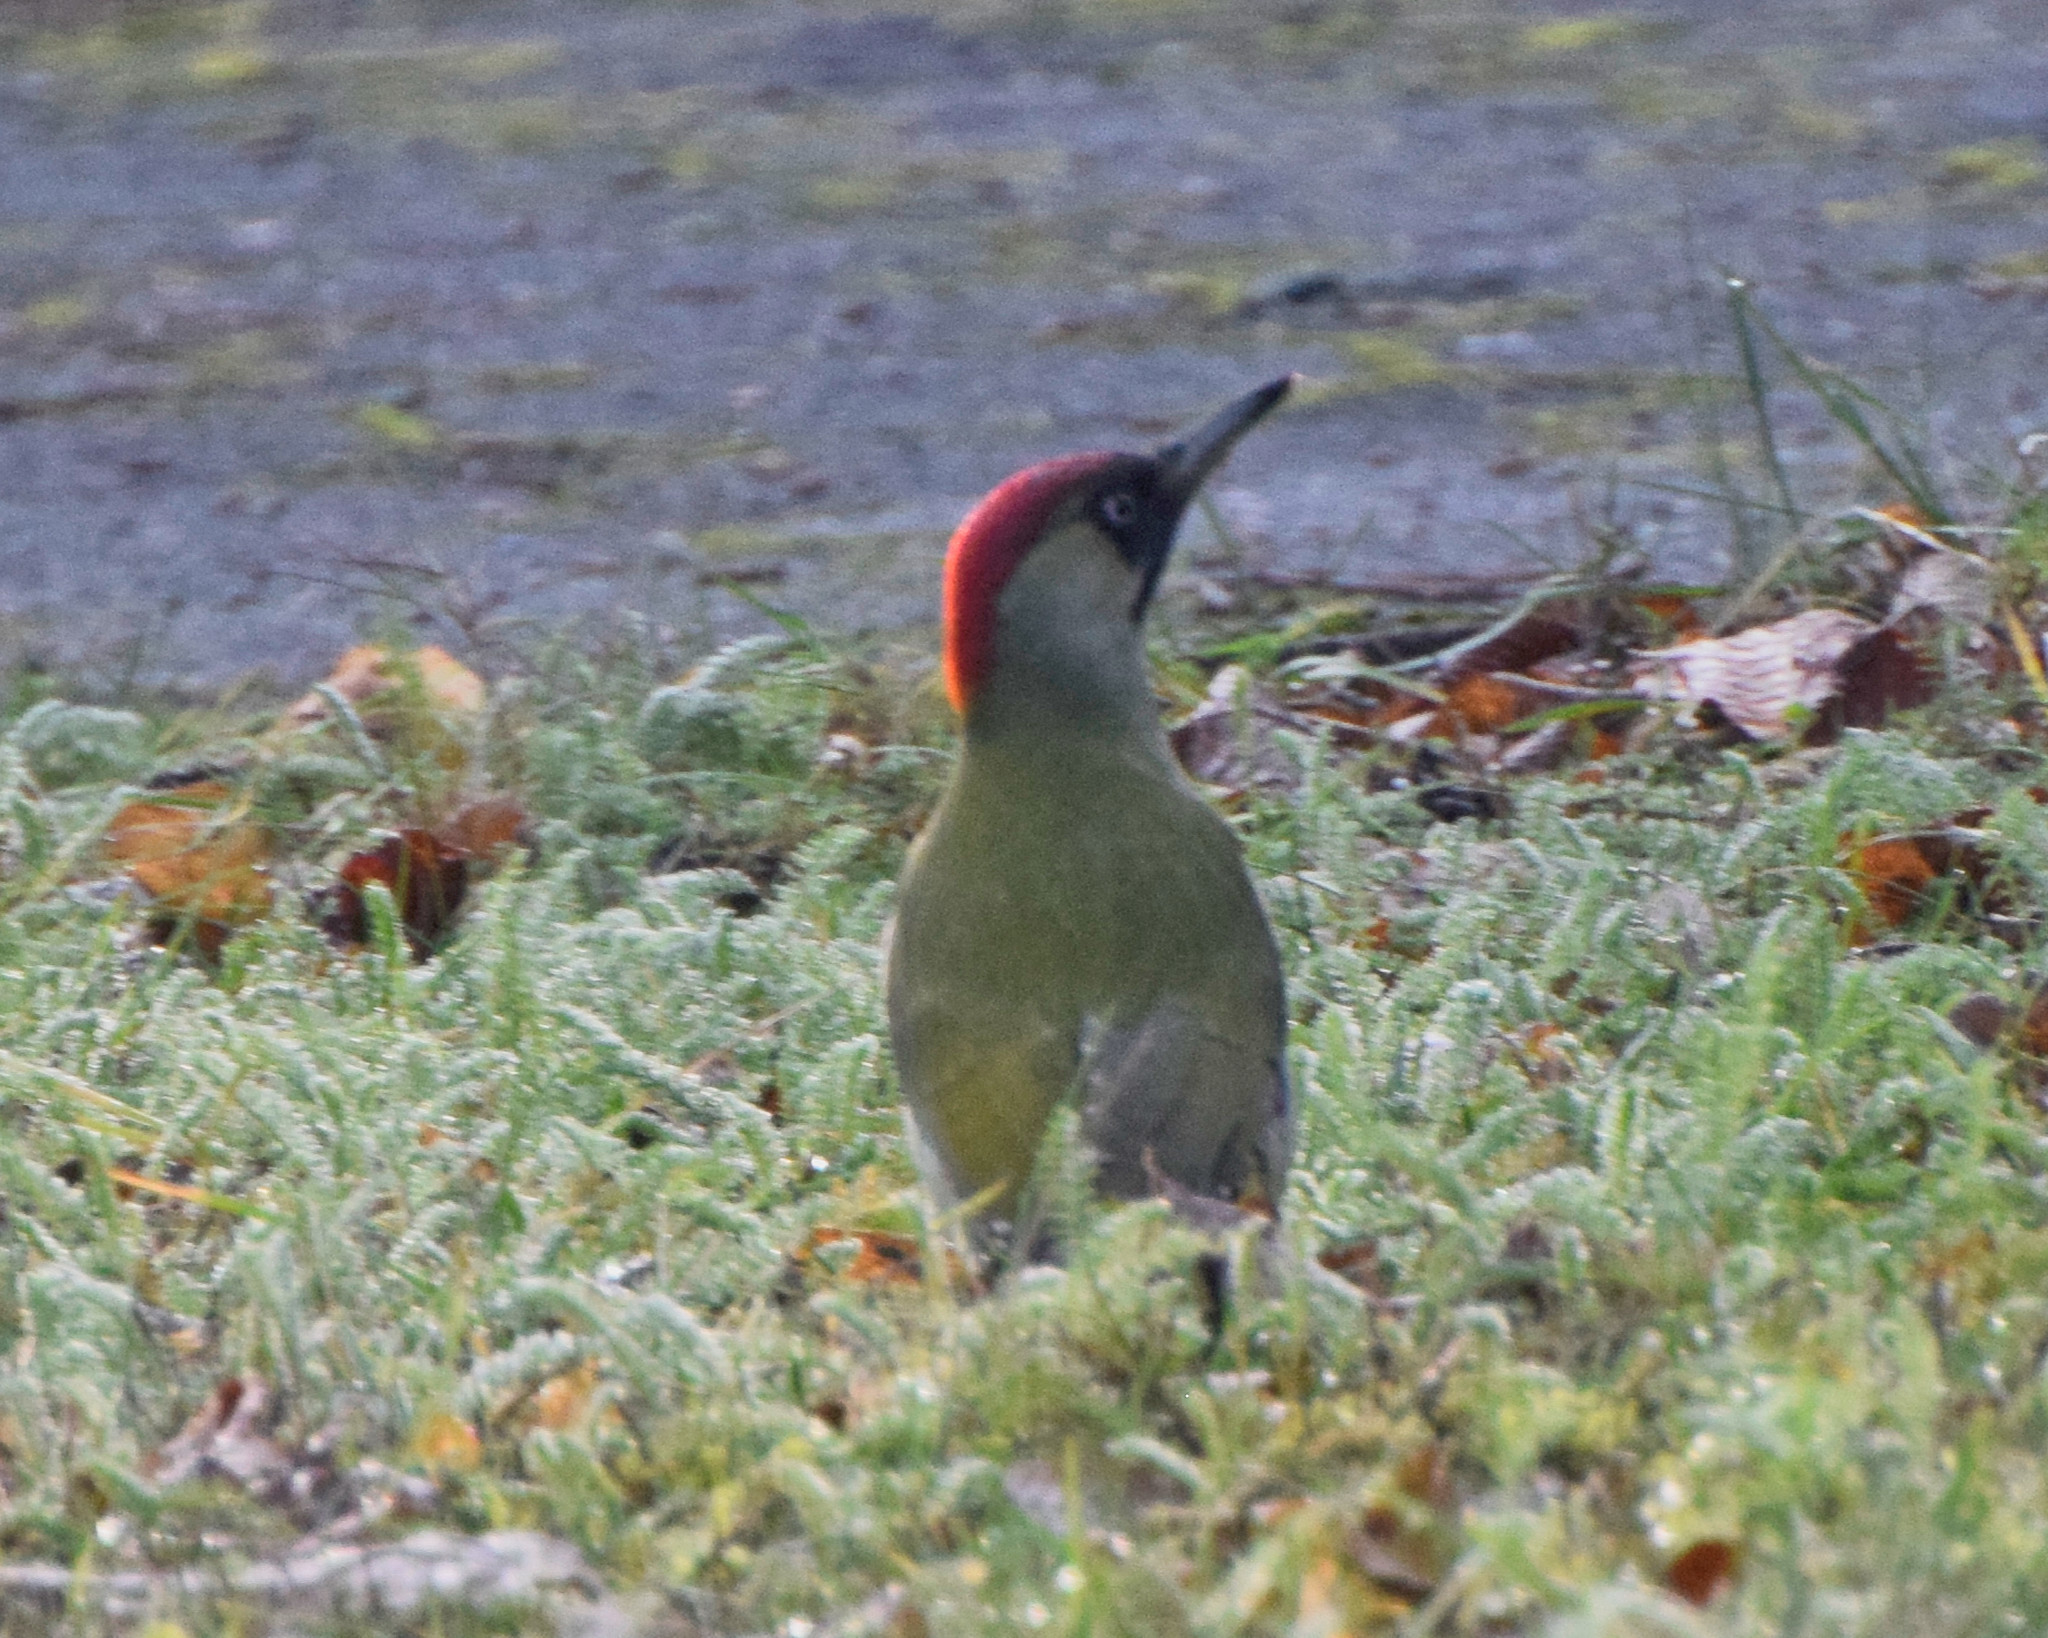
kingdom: Animalia
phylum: Chordata
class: Aves
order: Piciformes
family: Picidae
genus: Picus
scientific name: Picus viridis
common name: European green woodpecker
